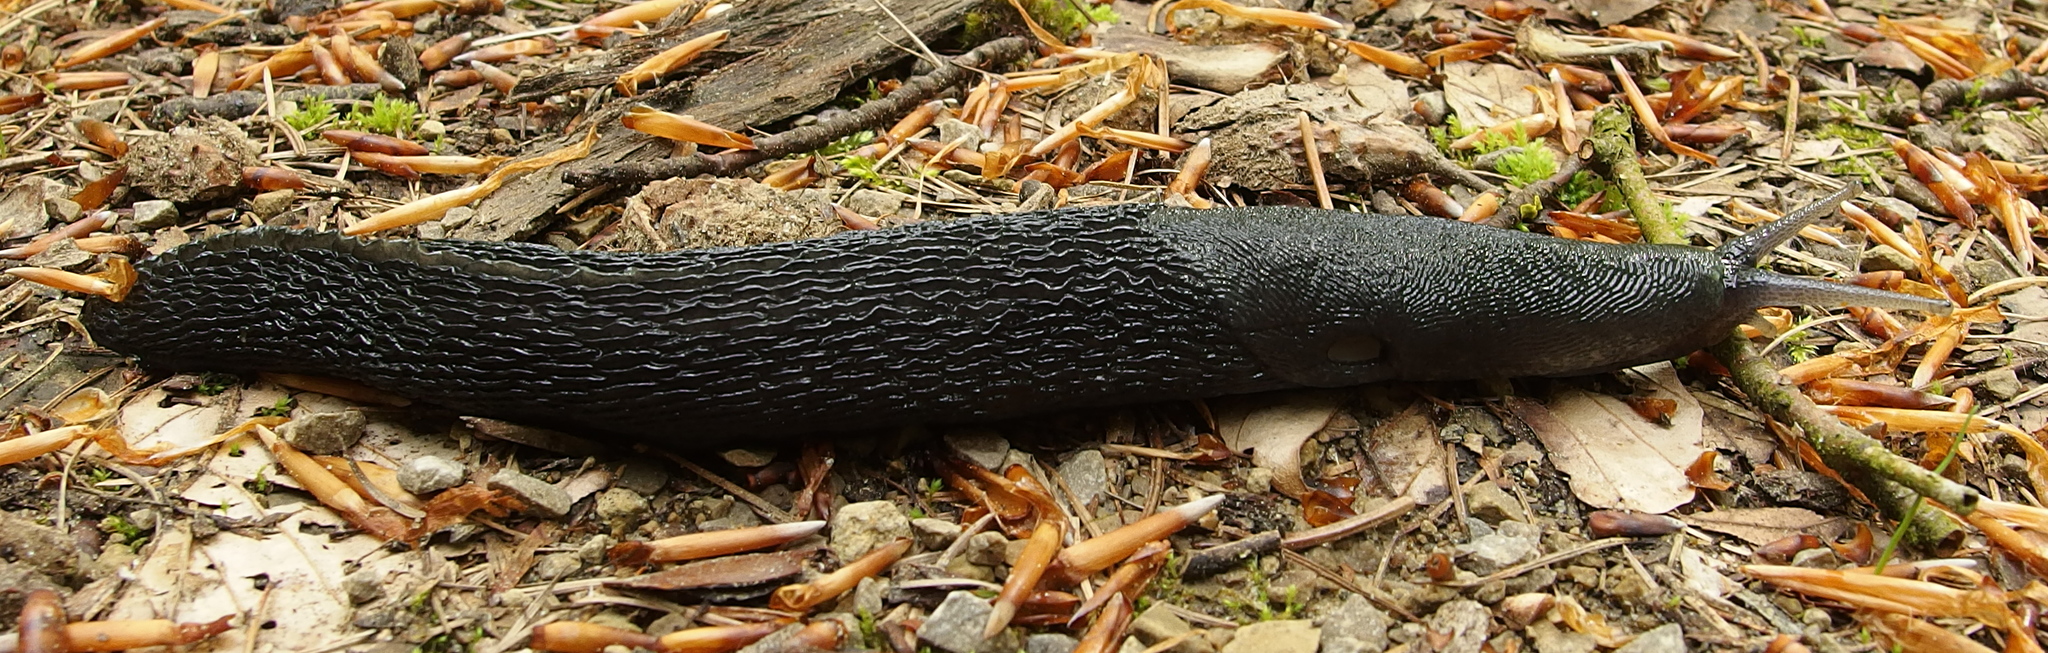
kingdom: Animalia
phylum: Mollusca
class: Gastropoda
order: Stylommatophora
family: Limacidae
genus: Limax
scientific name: Limax cinereoniger
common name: Ash-black slug
